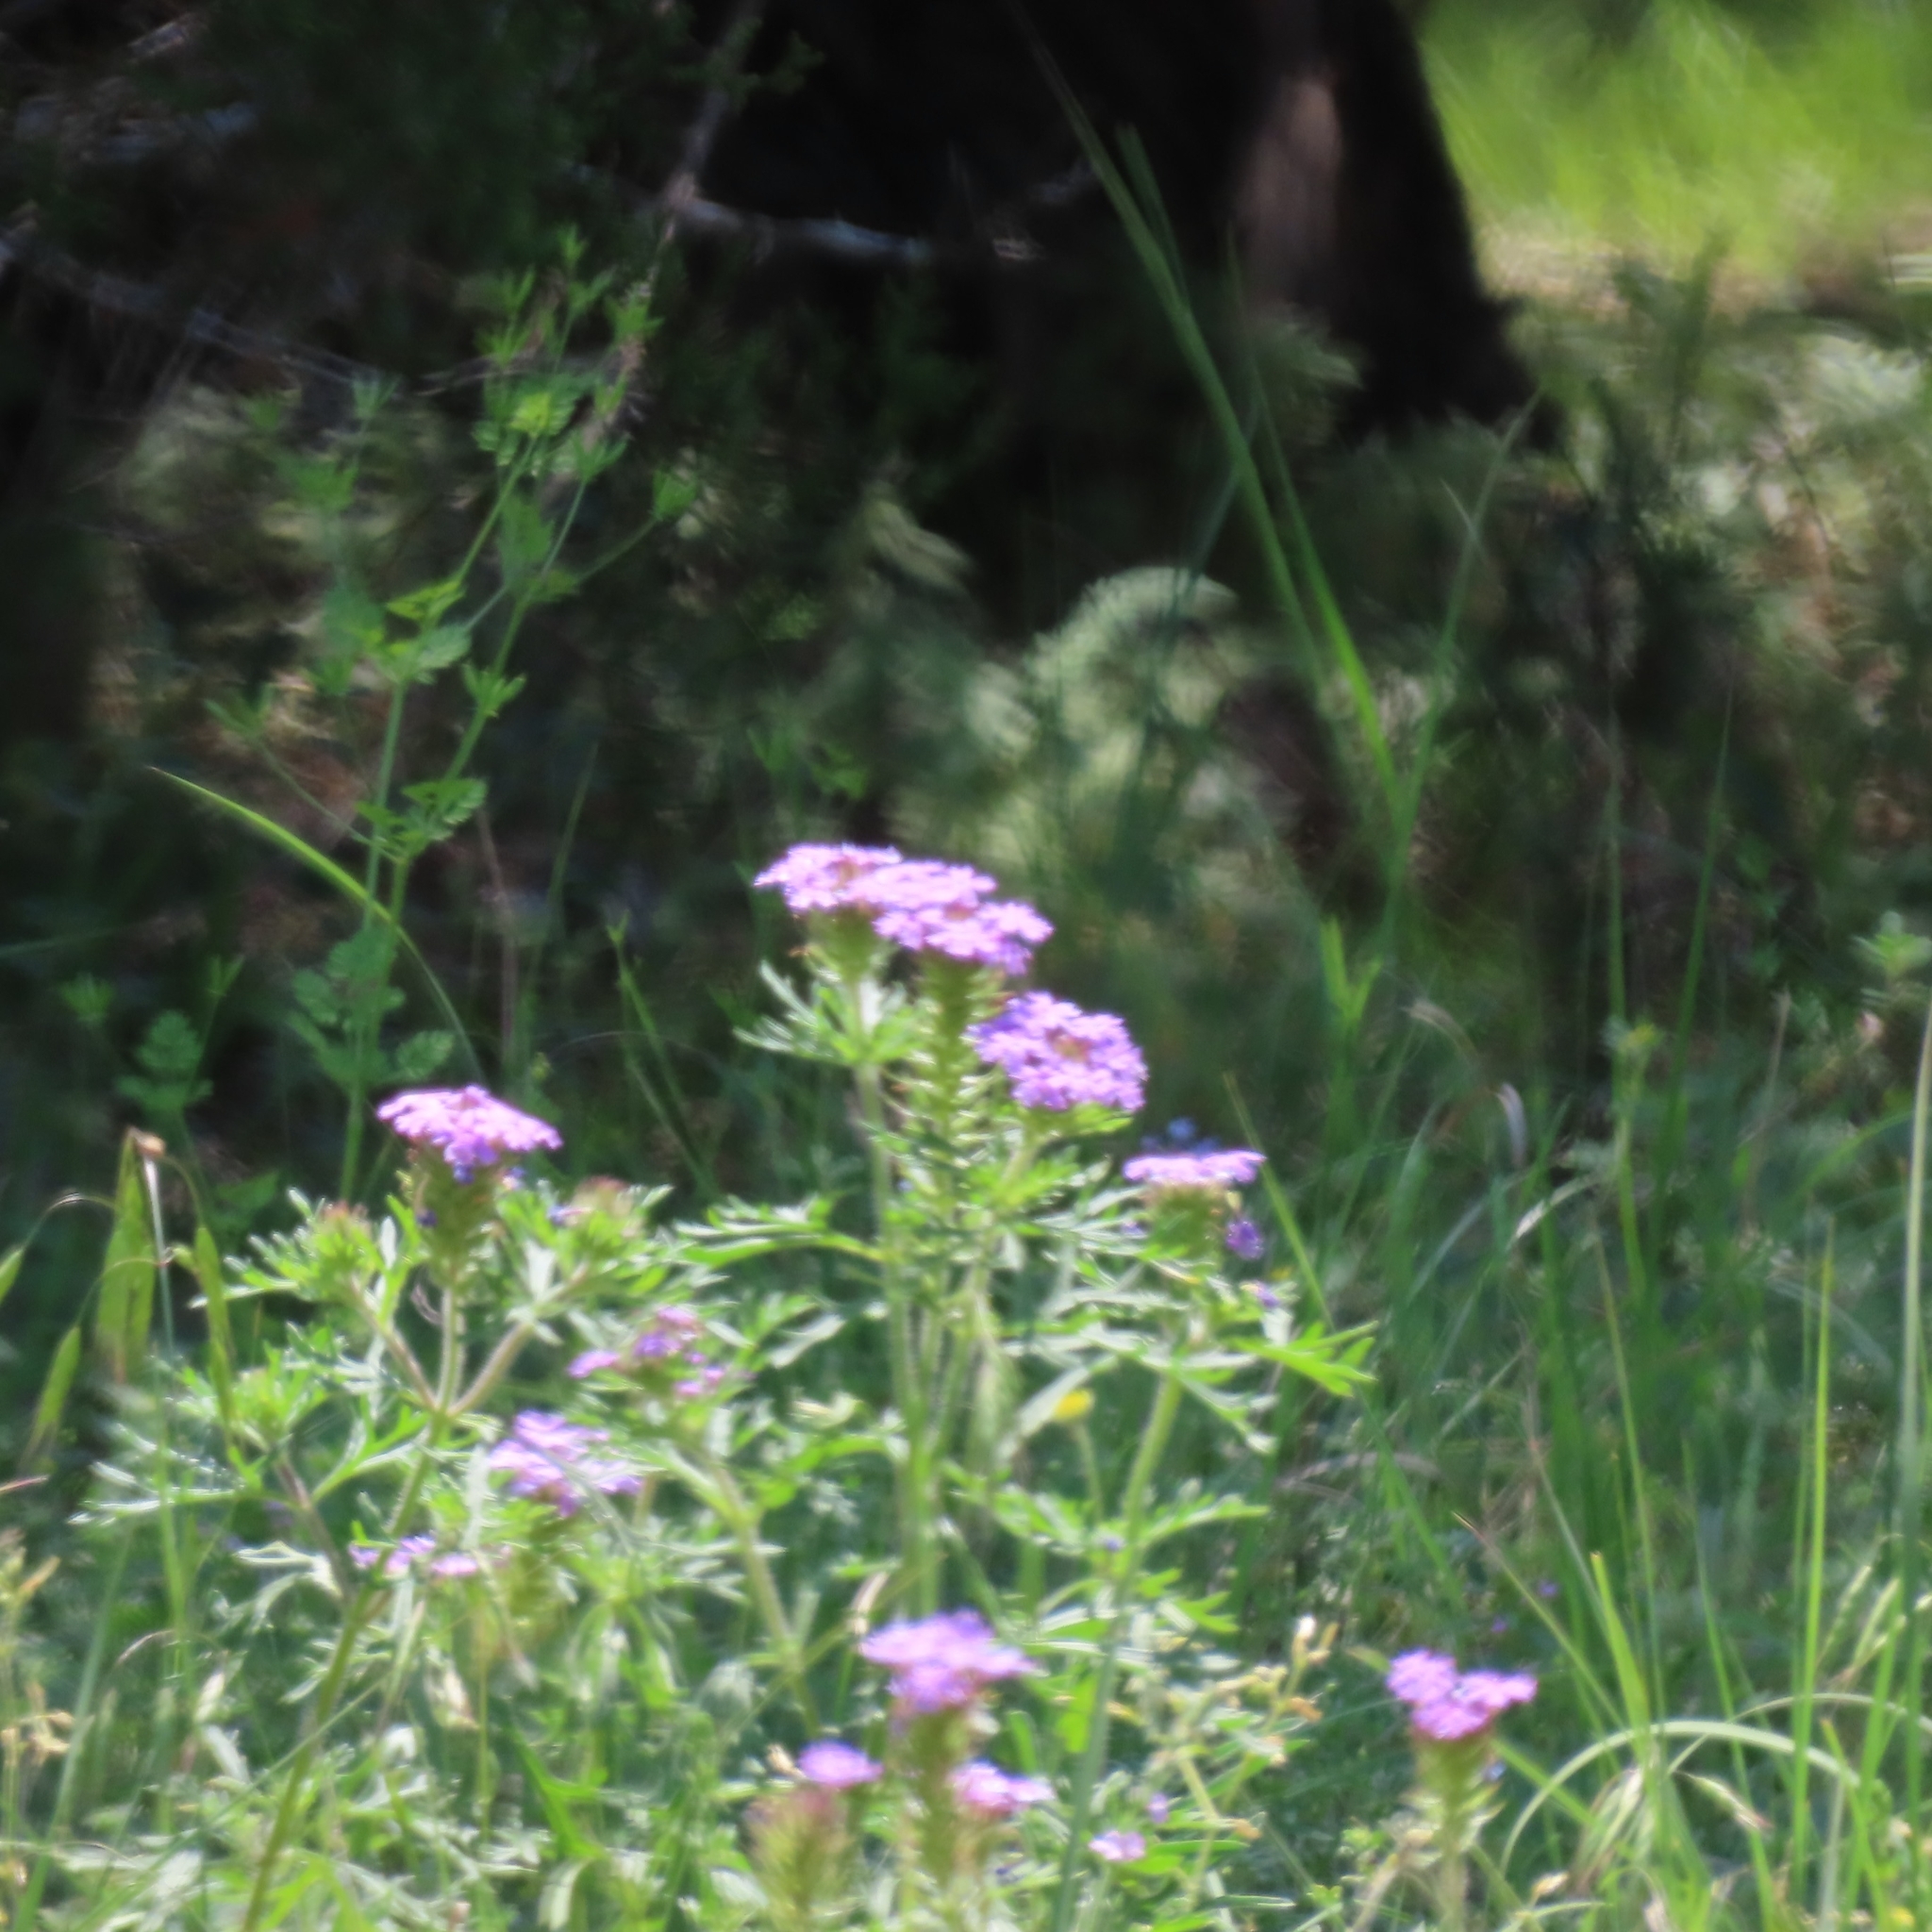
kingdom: Plantae
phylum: Tracheophyta
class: Magnoliopsida
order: Lamiales
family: Verbenaceae
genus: Verbena
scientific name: Verbena bipinnatifida
